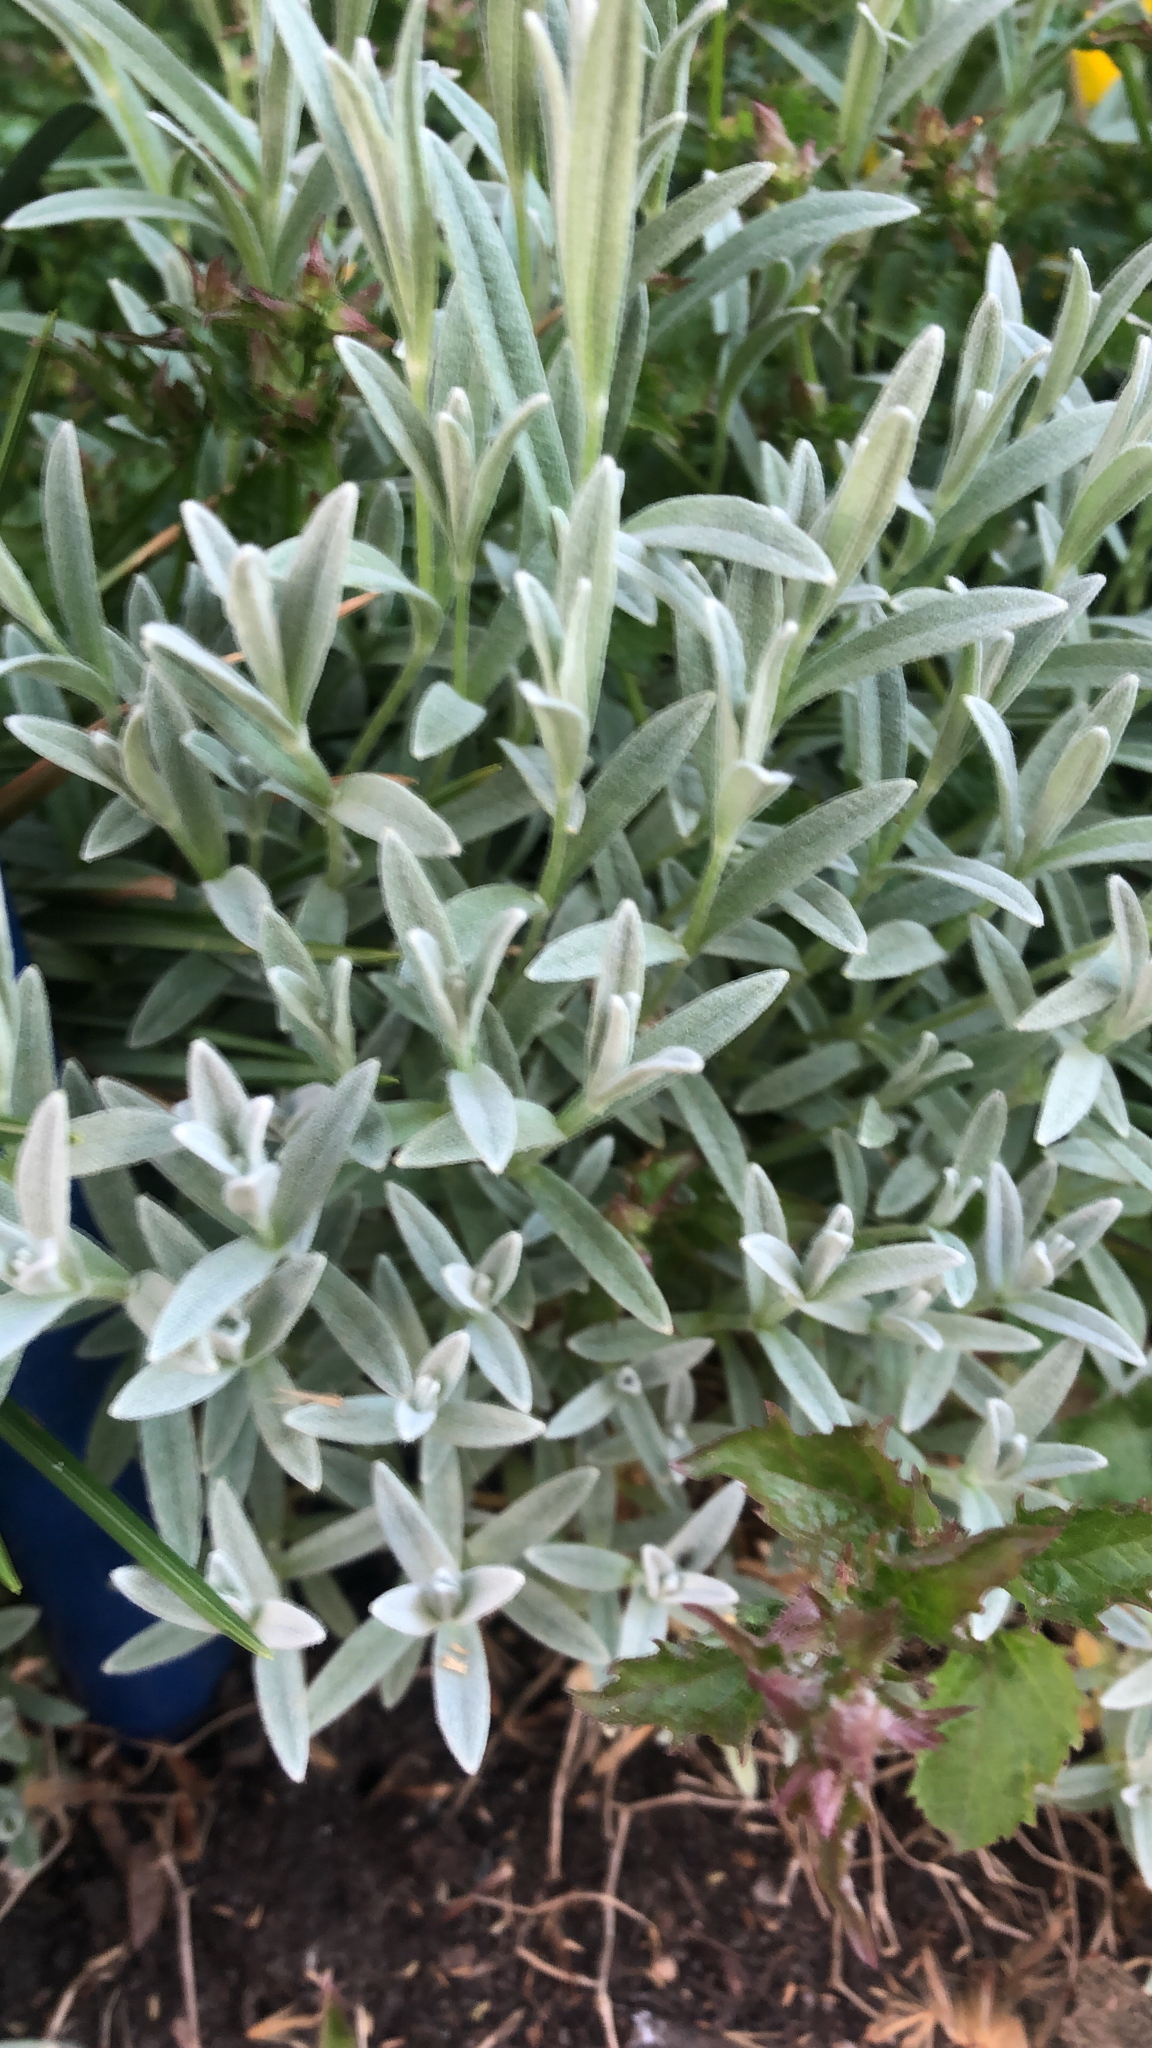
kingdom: Plantae
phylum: Tracheophyta
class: Magnoliopsida
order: Caryophyllales
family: Caryophyllaceae
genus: Cerastium
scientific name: Cerastium tomentosum
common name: Snow-in-summer
